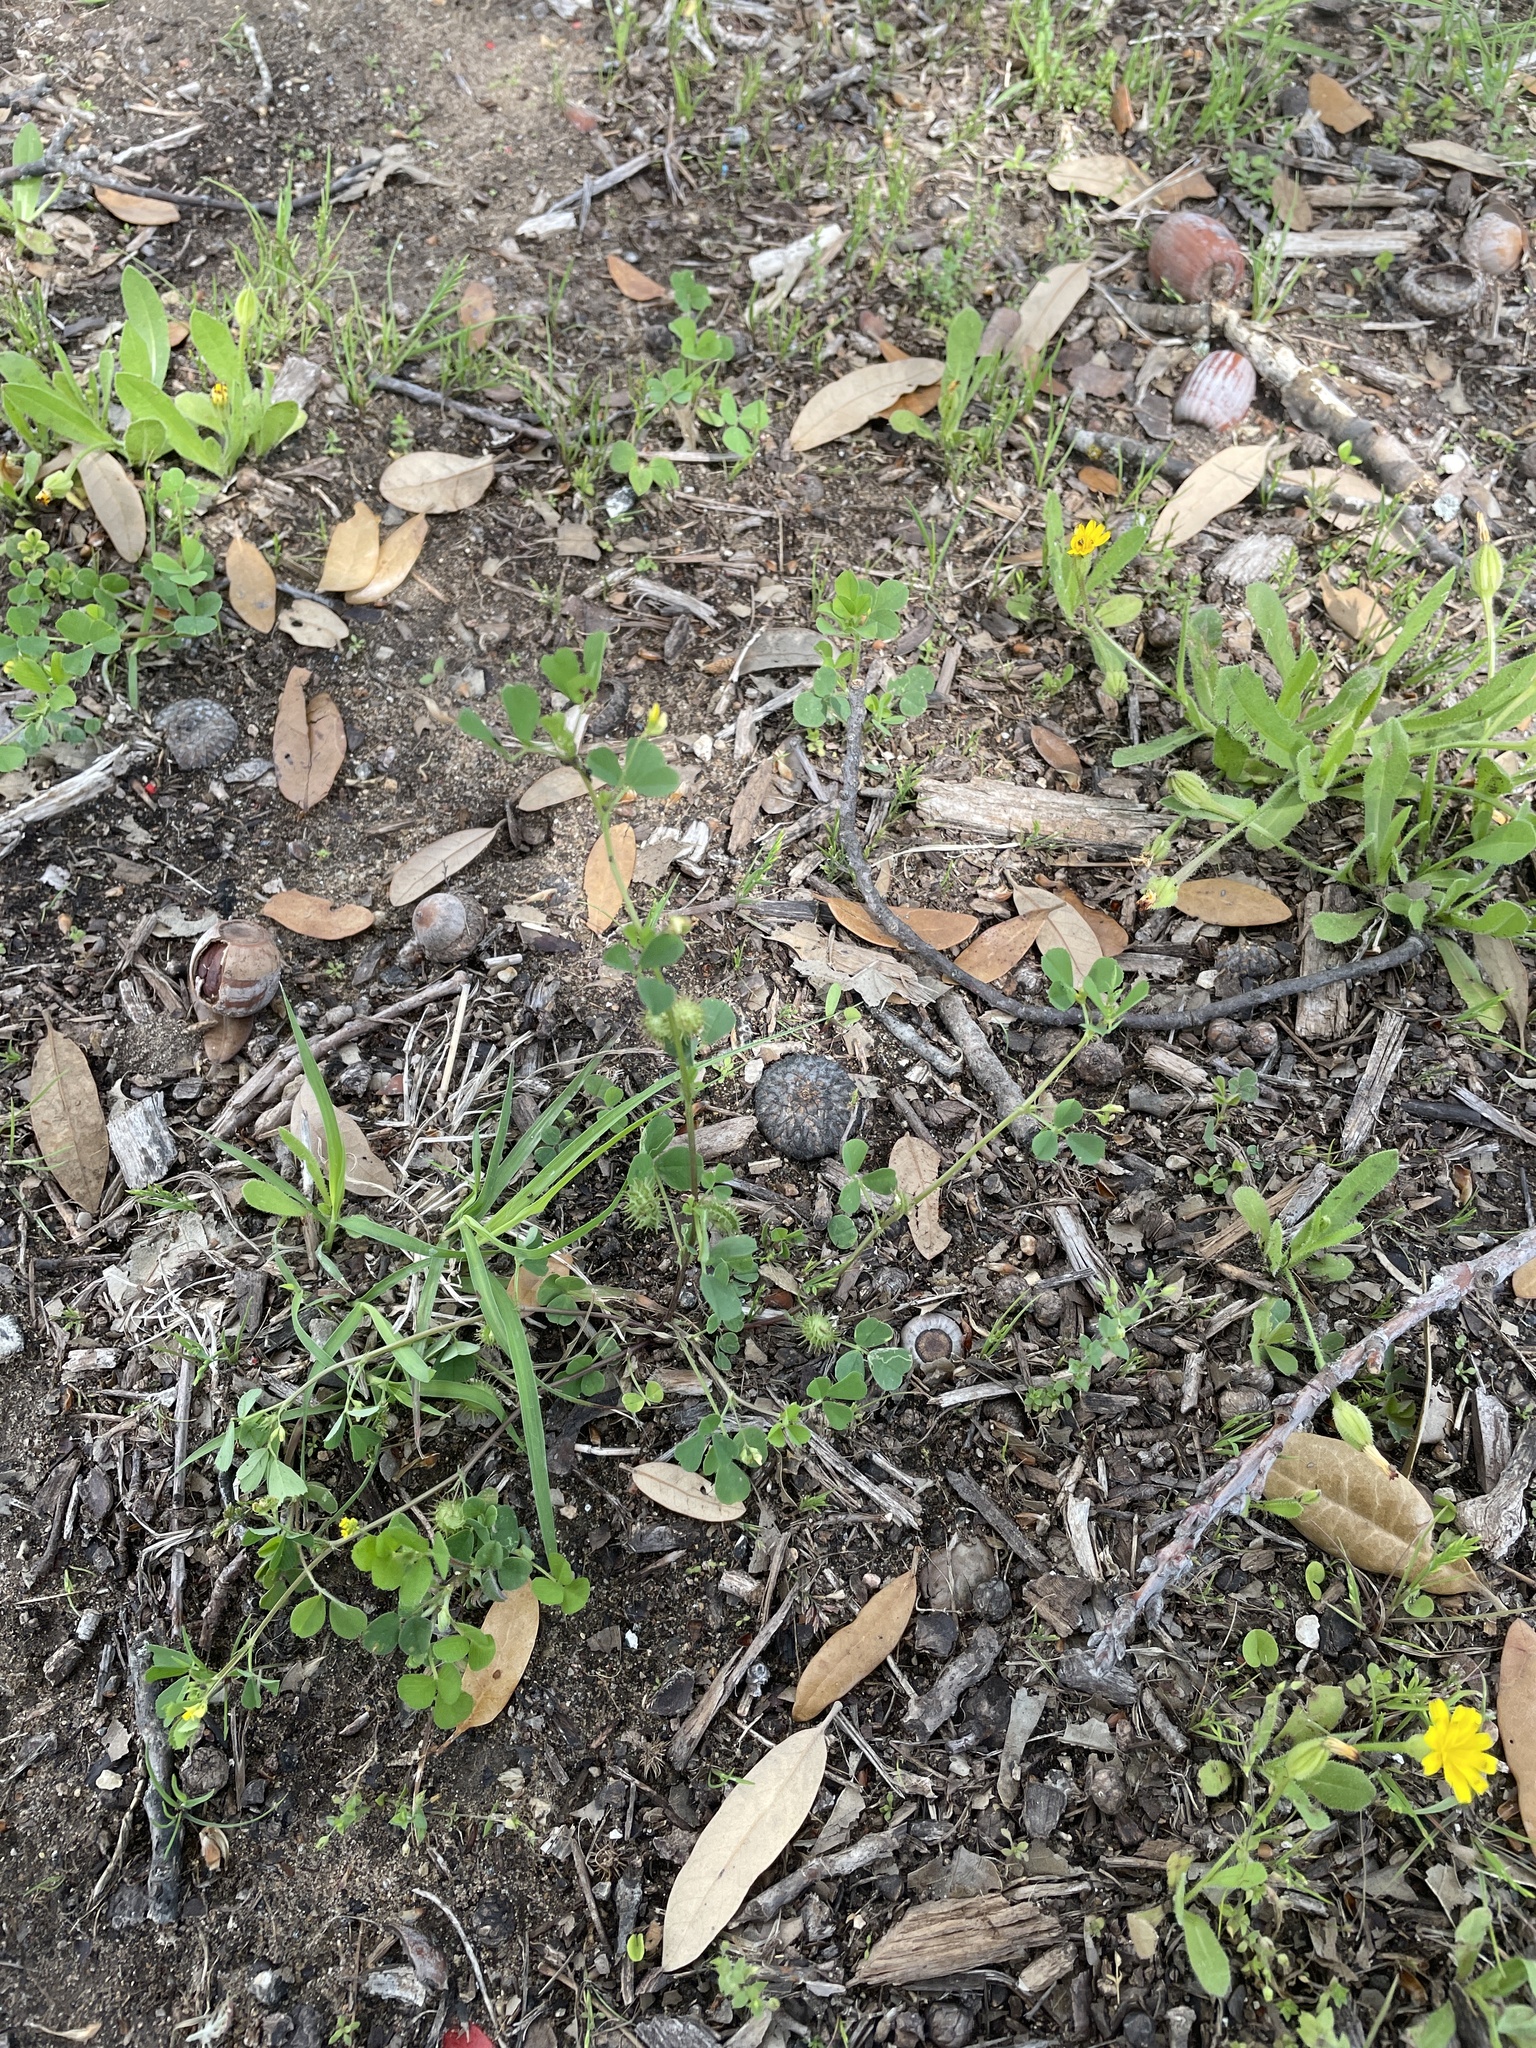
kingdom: Plantae
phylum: Tracheophyta
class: Magnoliopsida
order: Fabales
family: Fabaceae
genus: Medicago
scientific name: Medicago polymorpha
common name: Burclover
